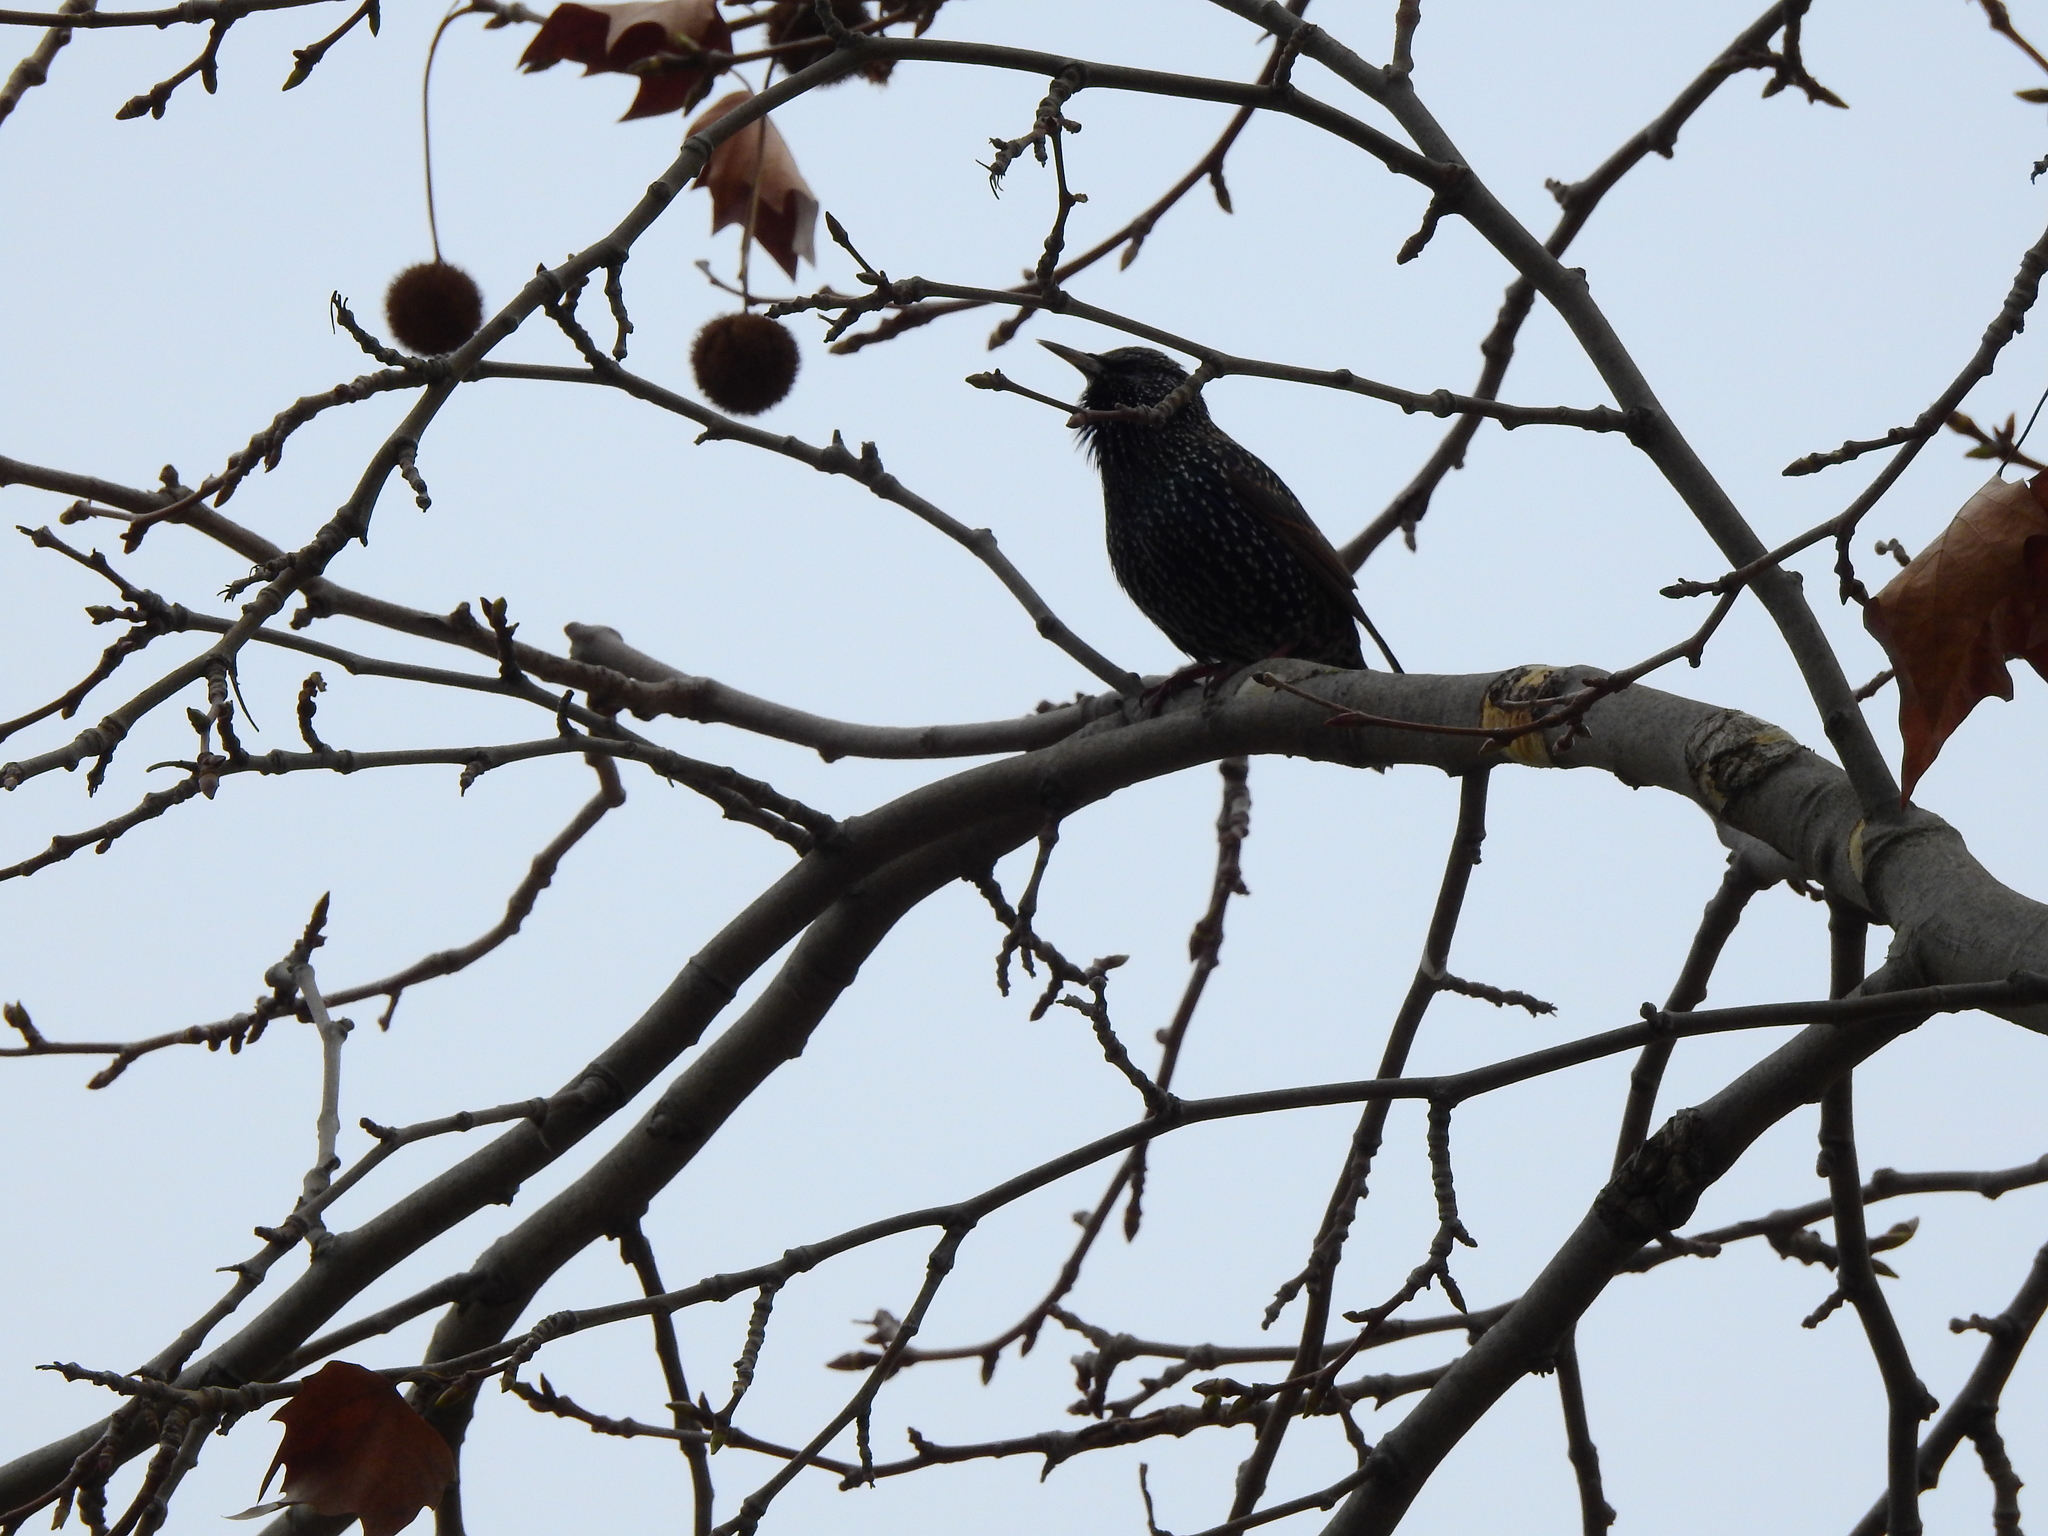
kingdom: Animalia
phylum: Chordata
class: Aves
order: Passeriformes
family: Sturnidae
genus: Sturnus
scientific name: Sturnus vulgaris
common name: Common starling
